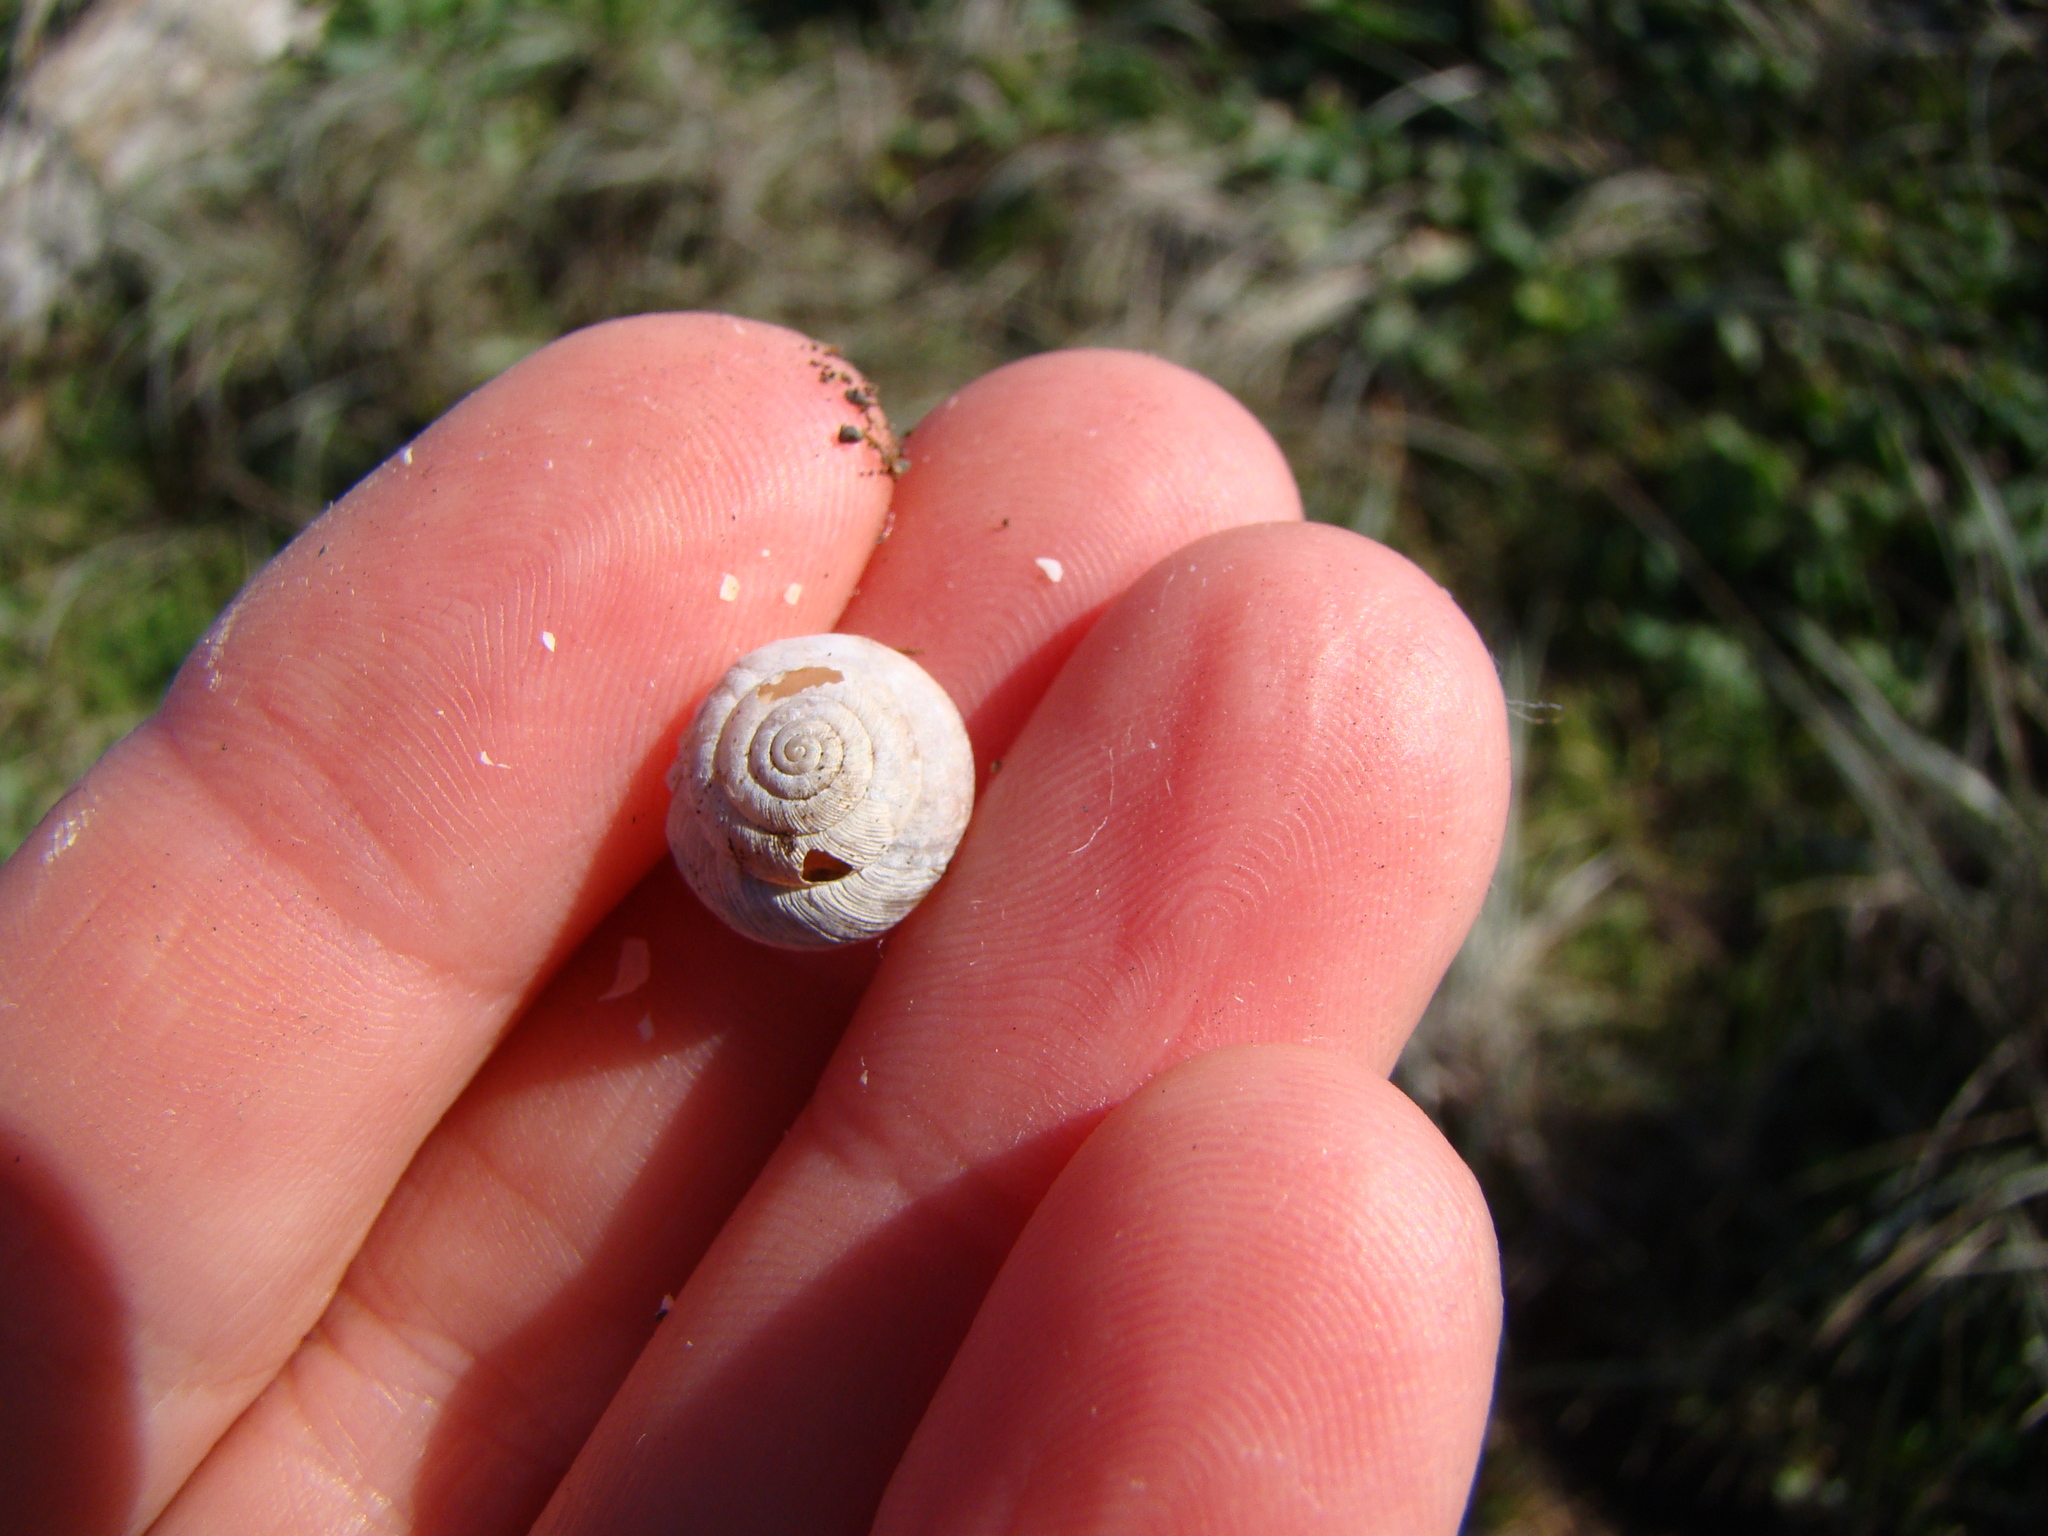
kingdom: Animalia
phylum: Mollusca
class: Gastropoda
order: Stylommatophora
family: Geomitridae
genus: Xeroplexa
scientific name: Xeroplexa intersecta
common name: Wrinkled snail
